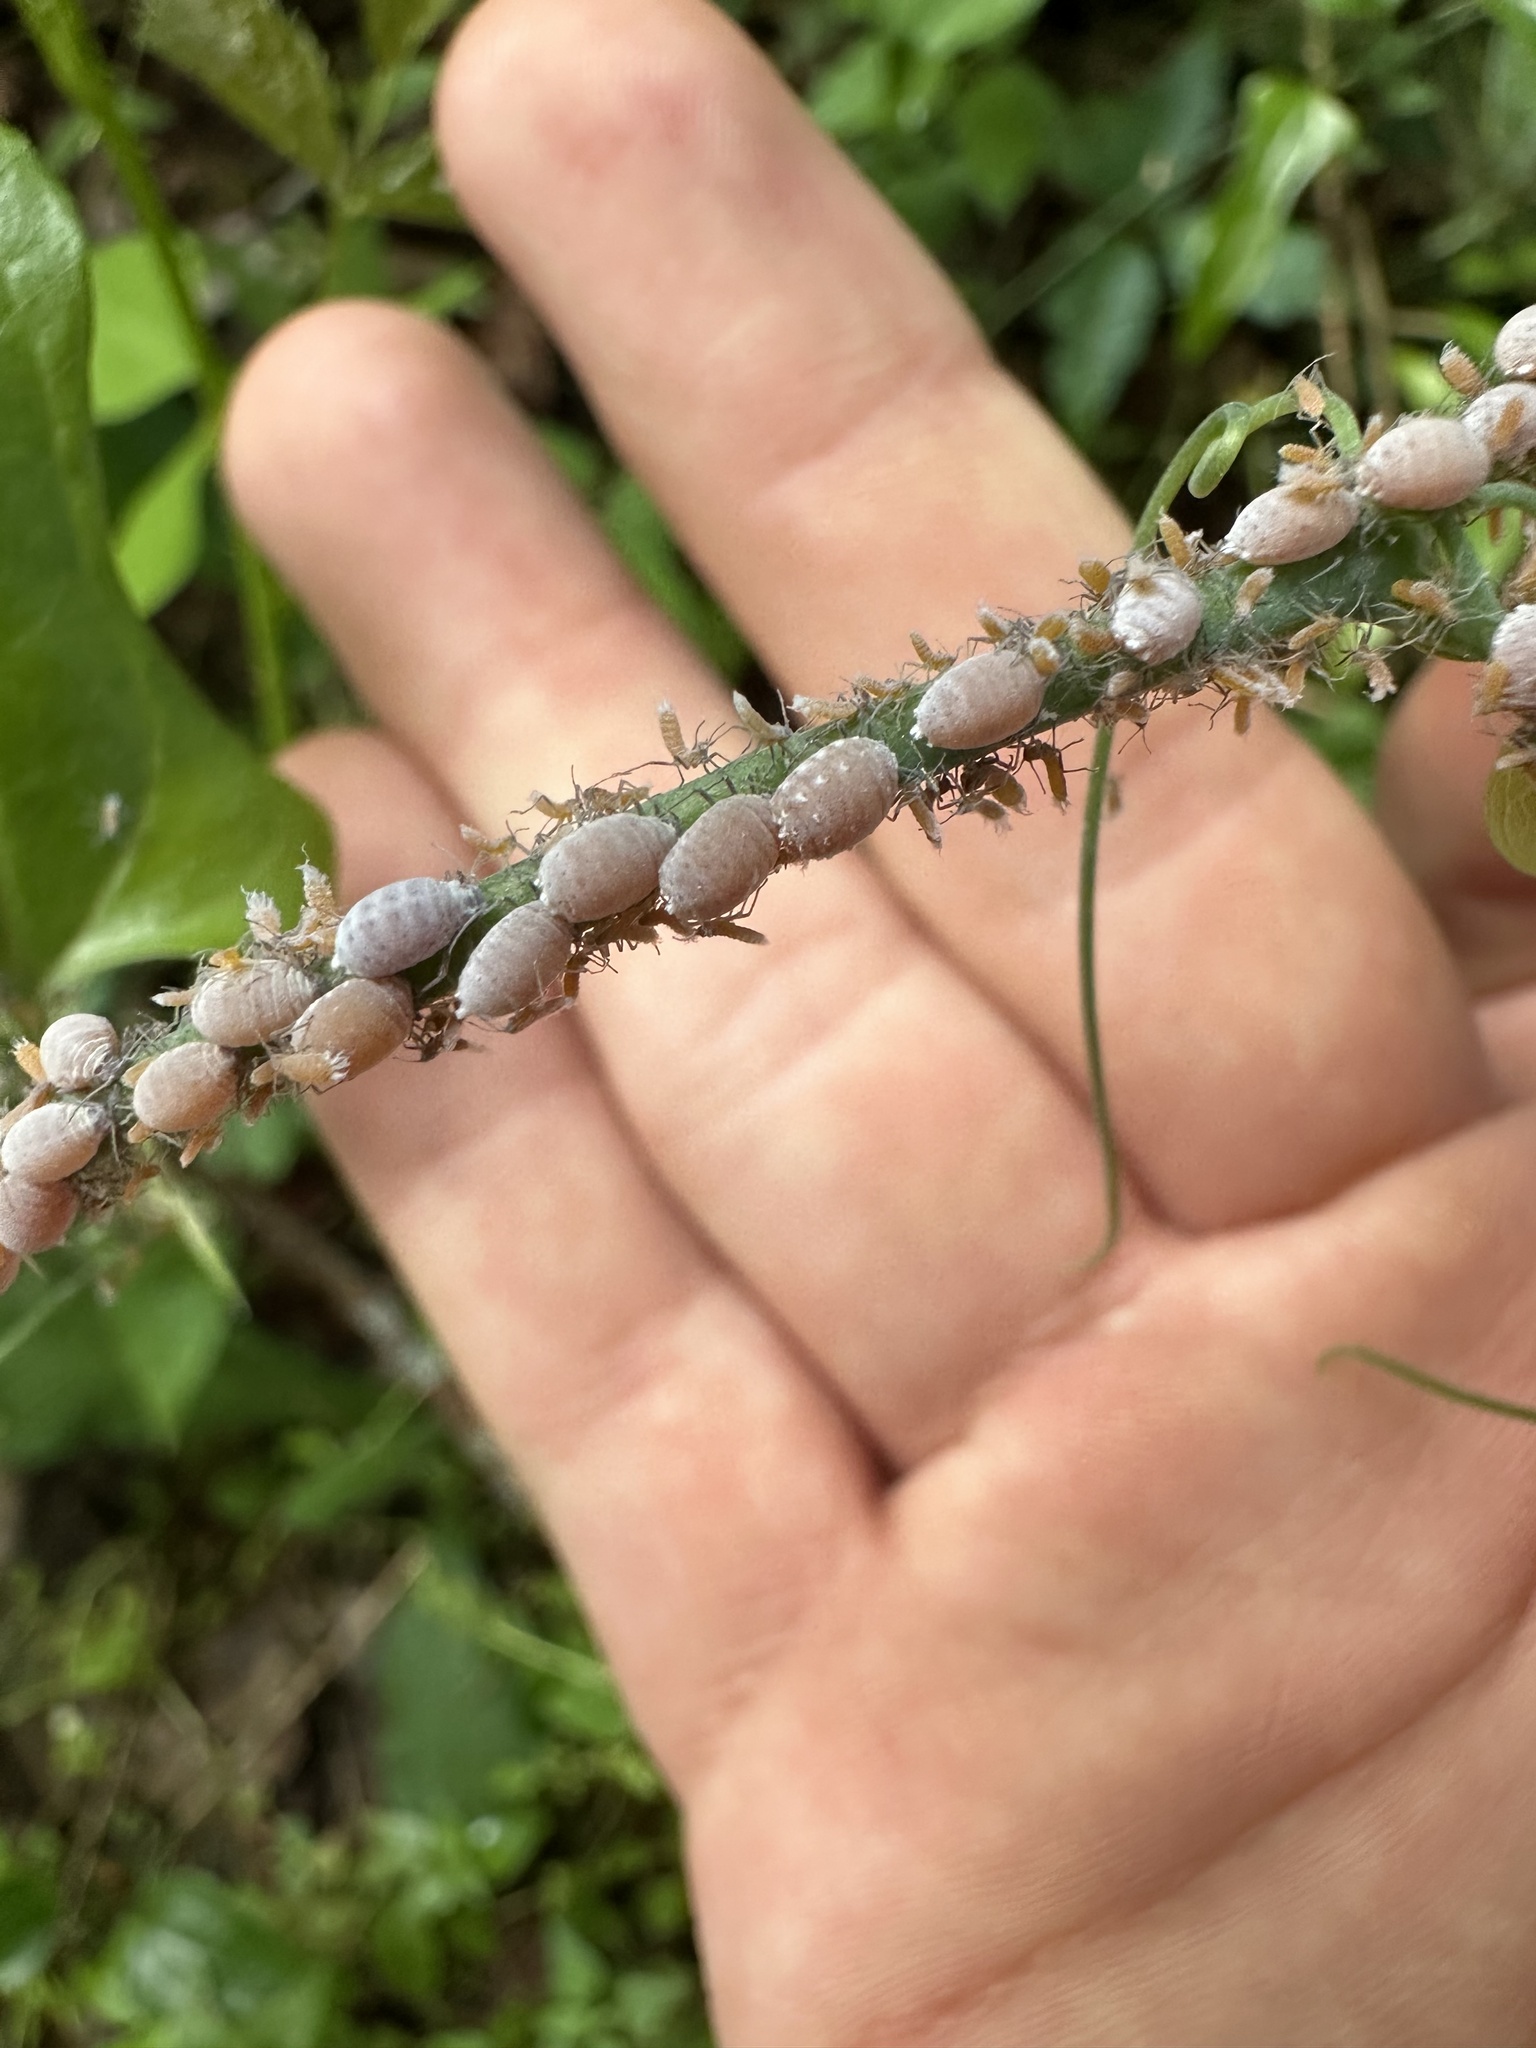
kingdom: Animalia
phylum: Arthropoda
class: Insecta
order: Hemiptera
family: Aphididae
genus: Neoprociphilus
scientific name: Neoprociphilus aceris
